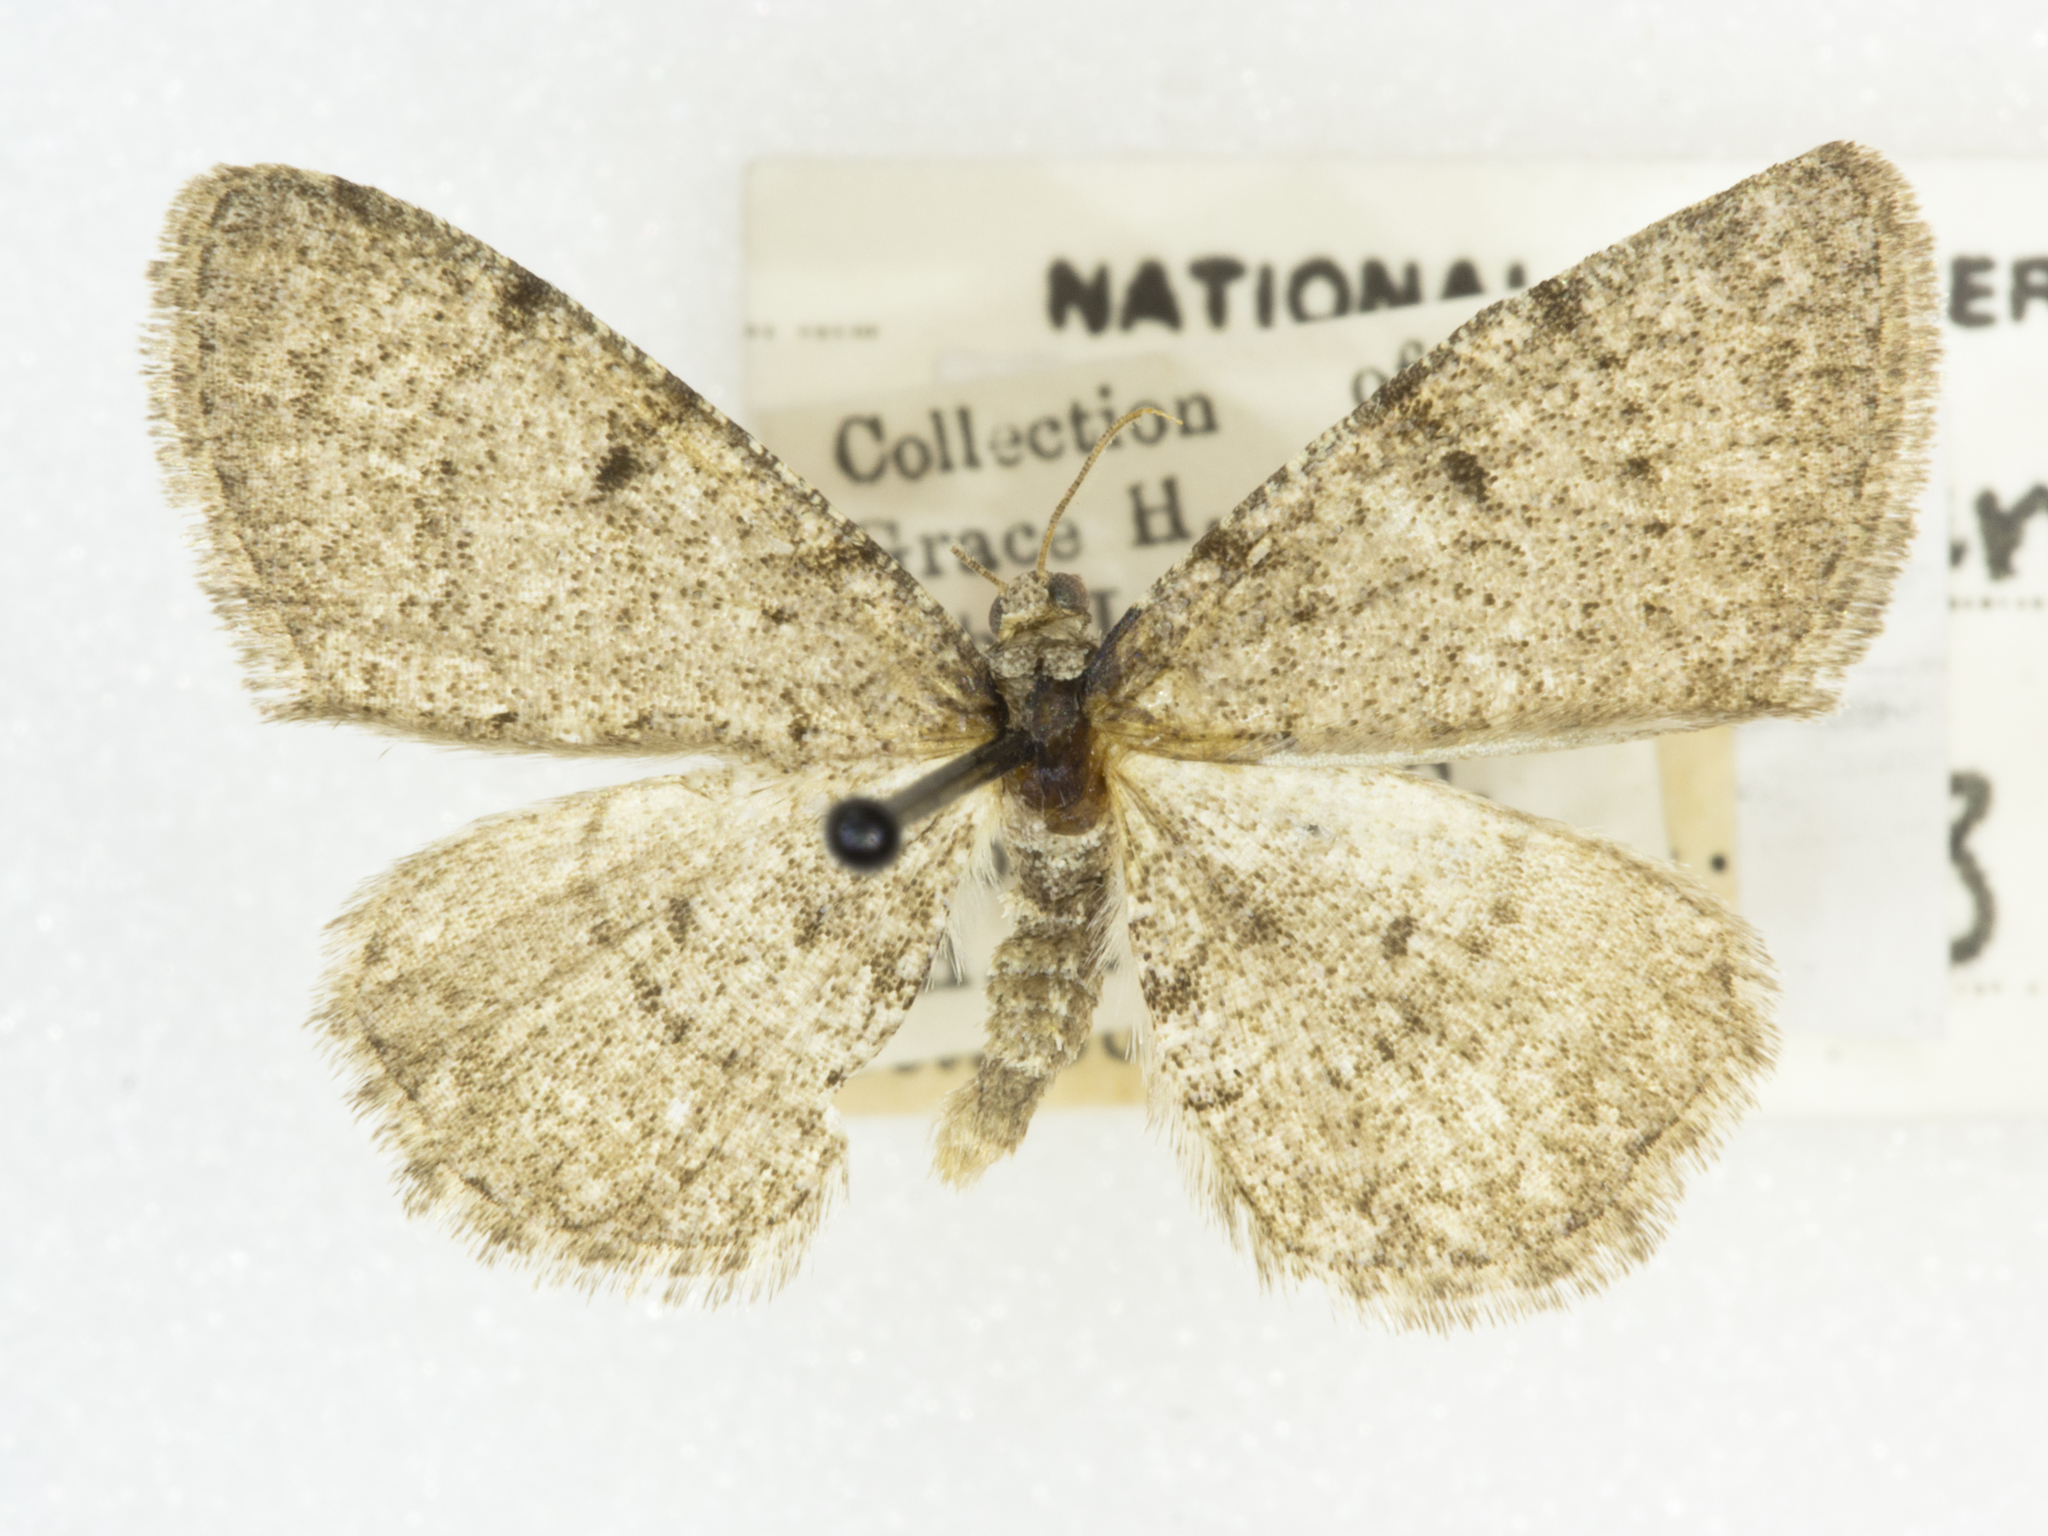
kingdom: Animalia
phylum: Arthropoda
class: Insecta
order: Lepidoptera
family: Geometridae
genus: Aethalura
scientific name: Aethalura intertexta
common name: Four-barred gray
